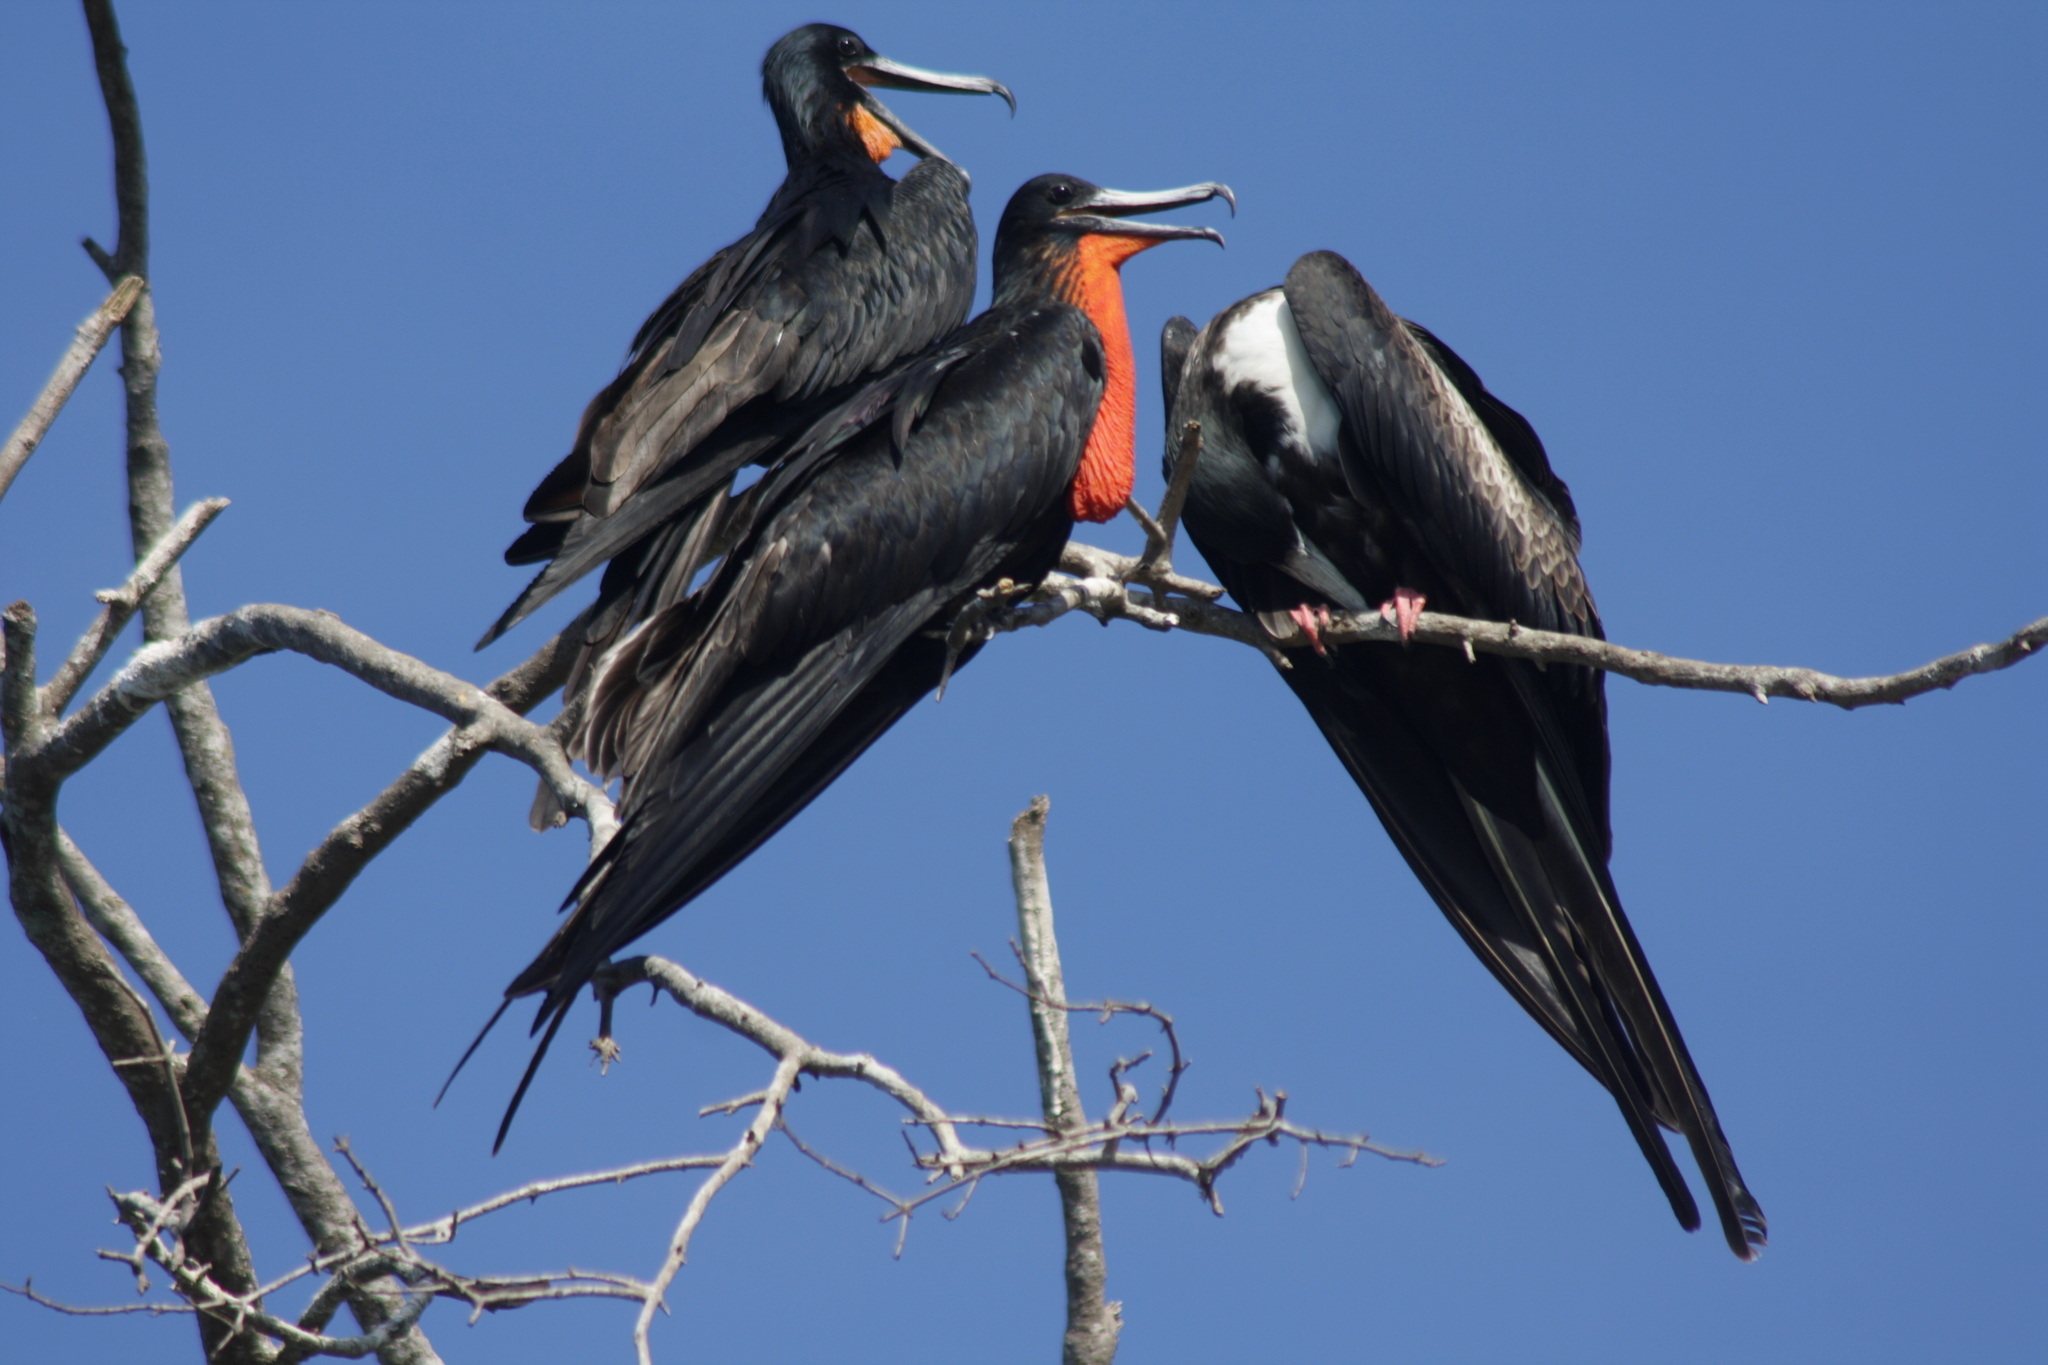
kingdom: Animalia
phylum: Chordata
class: Aves
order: Suliformes
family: Fregatidae
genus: Fregata
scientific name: Fregata magnificens
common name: Magnificent frigatebird
